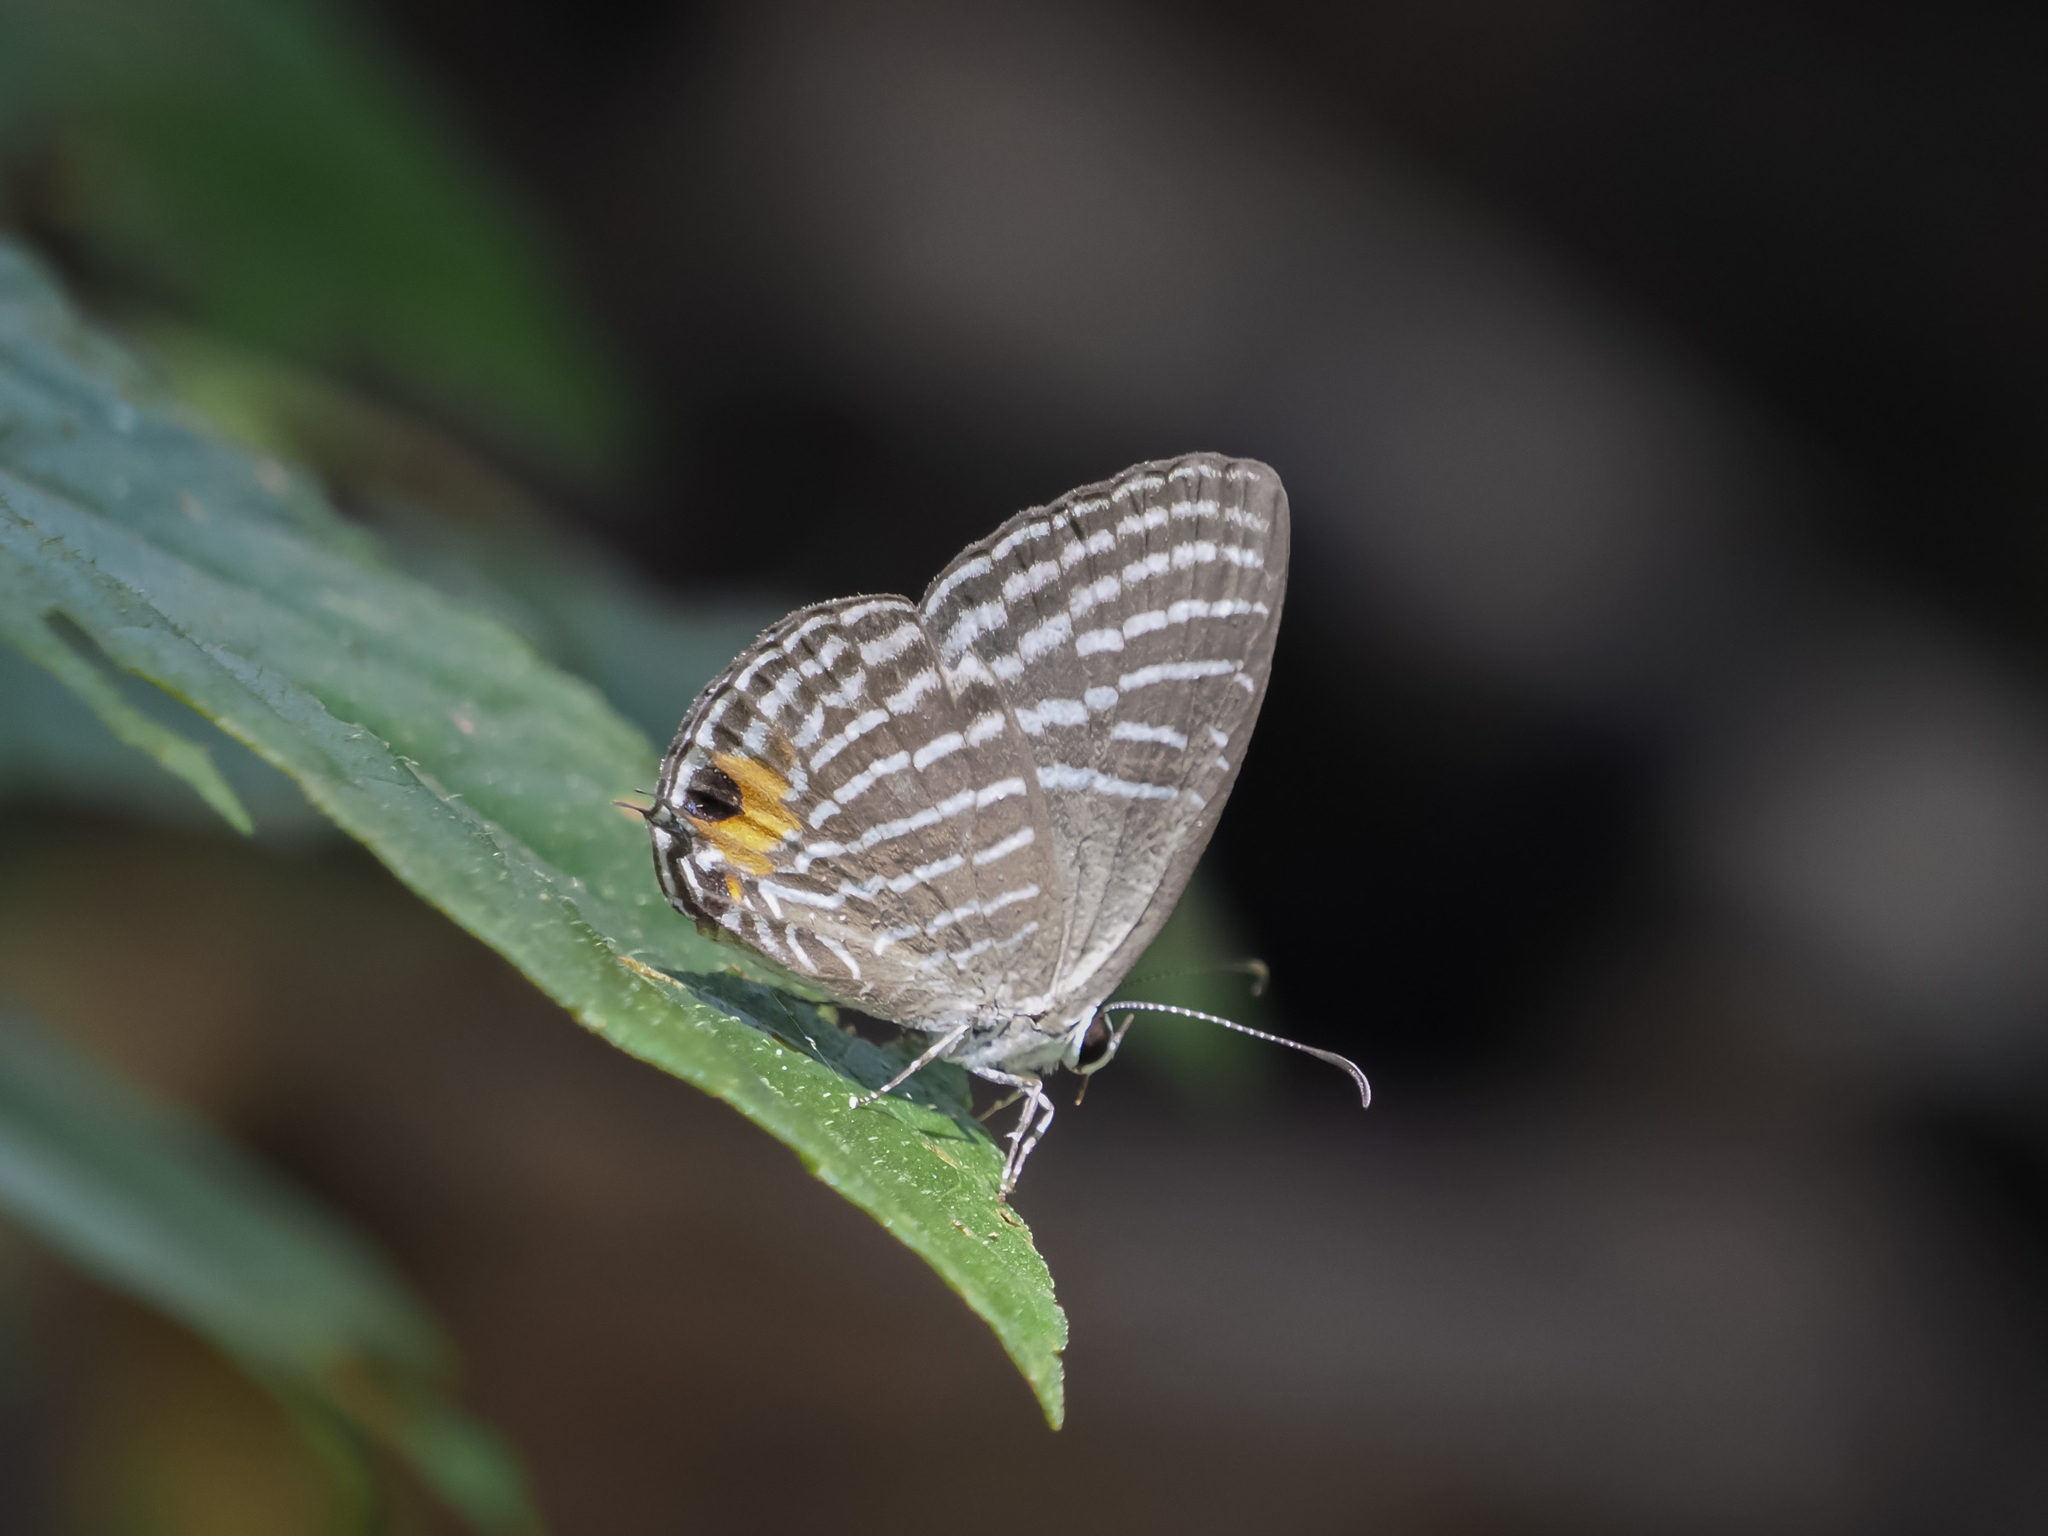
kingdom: Animalia
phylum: Arthropoda
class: Insecta
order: Lepidoptera
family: Lycaenidae
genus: Jamides
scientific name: Jamides malaccanus
